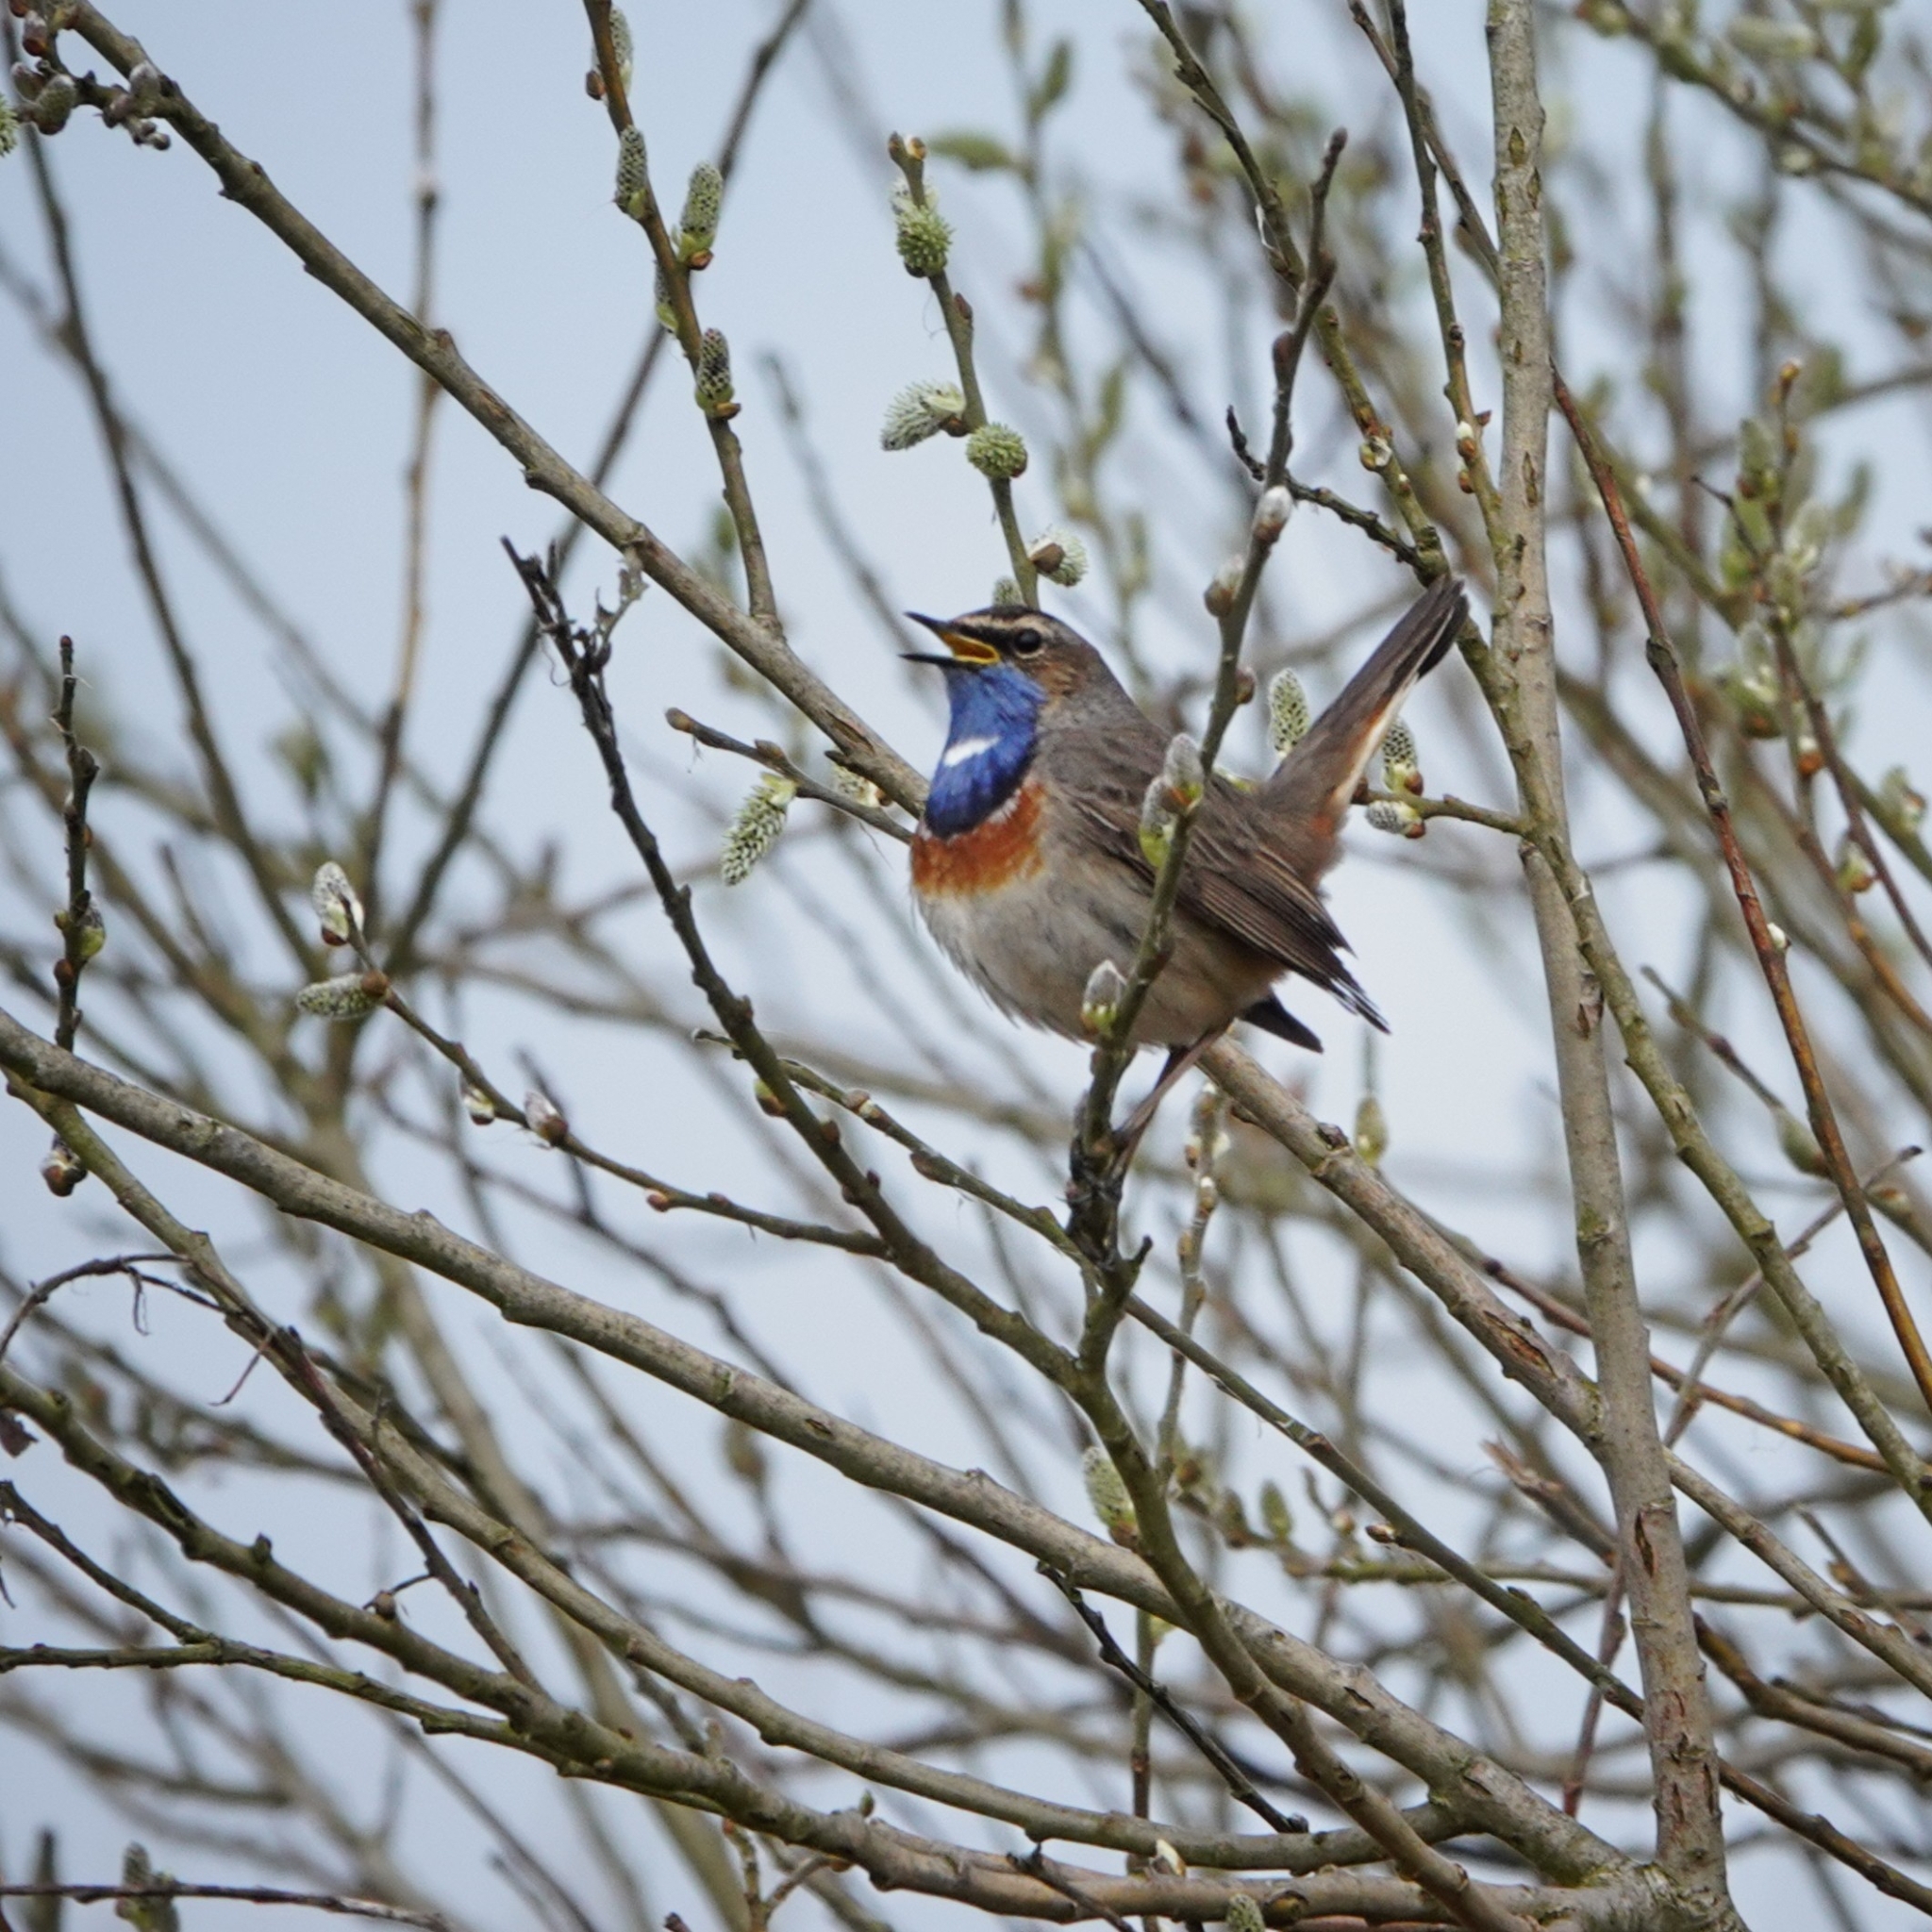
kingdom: Animalia
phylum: Chordata
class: Aves
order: Passeriformes
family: Muscicapidae
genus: Luscinia
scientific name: Luscinia svecica
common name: Bluethroat
